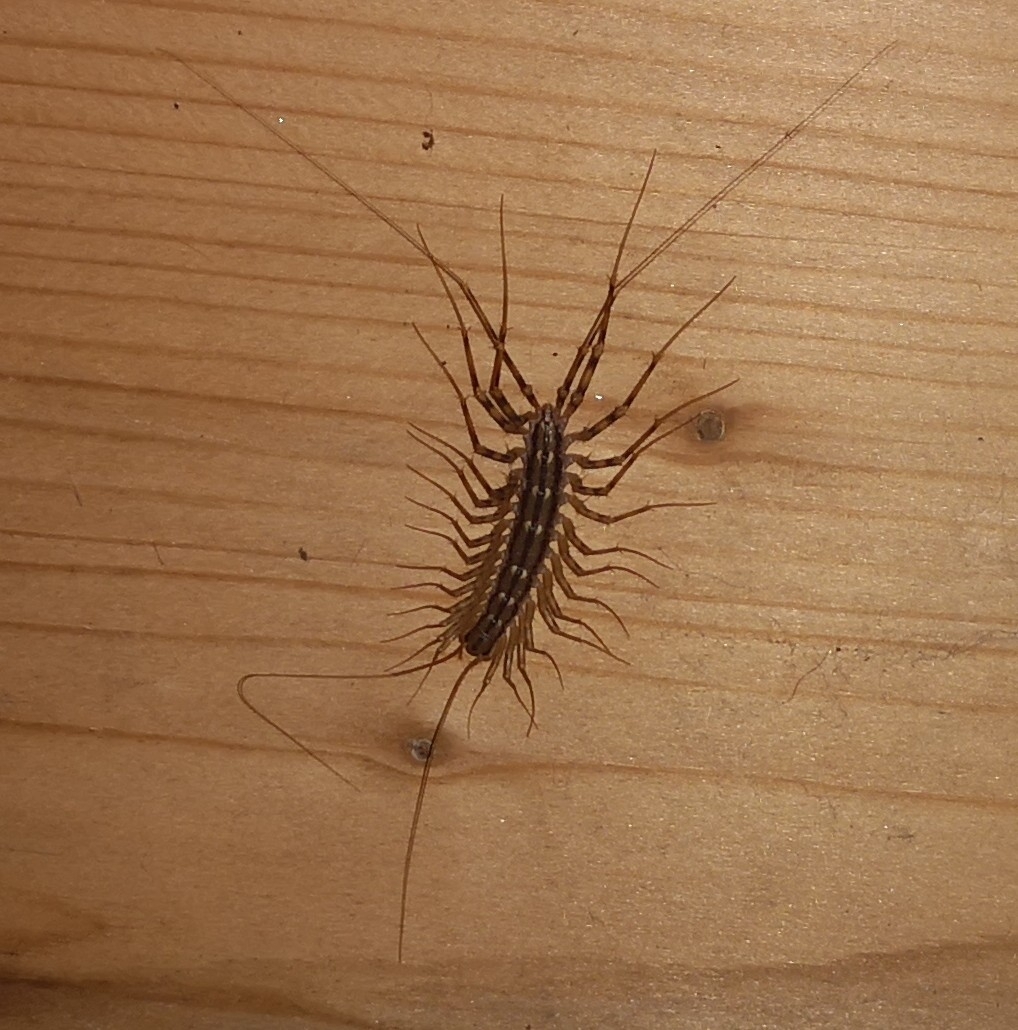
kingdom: Animalia
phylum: Arthropoda
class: Chilopoda
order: Scutigeromorpha
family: Scutigeridae
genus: Scutigera
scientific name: Scutigera coleoptrata
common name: House centipede
